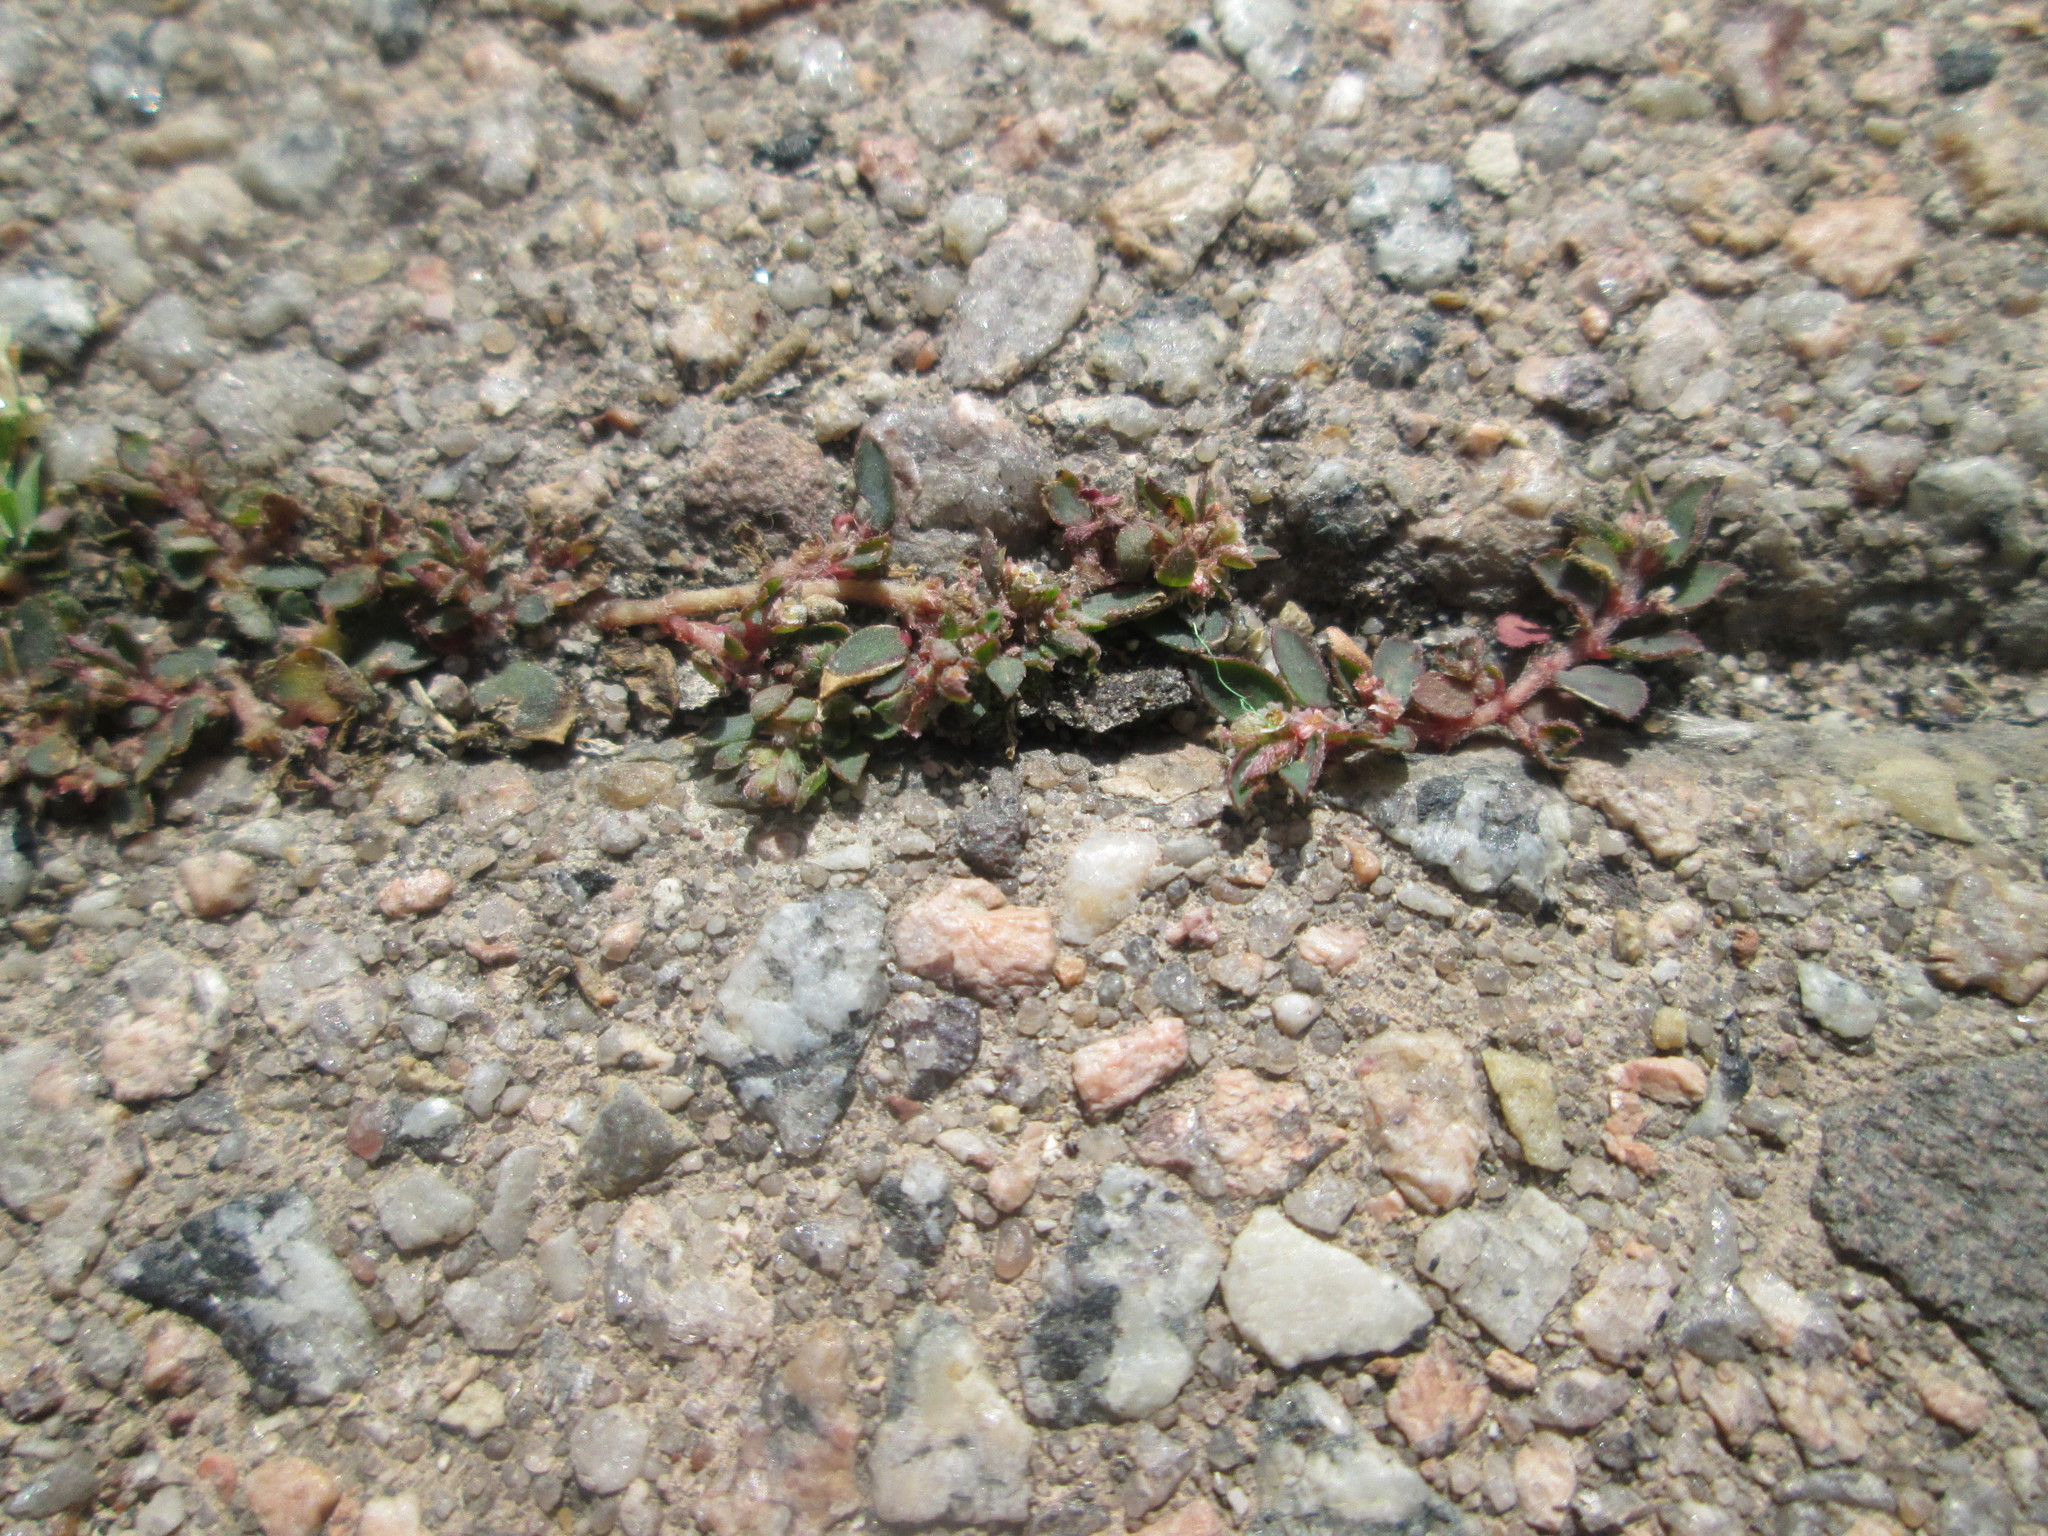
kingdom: Plantae
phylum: Tracheophyta
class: Magnoliopsida
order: Malpighiales
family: Euphorbiaceae
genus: Euphorbia
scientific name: Euphorbia maculata
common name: Spotted spurge
